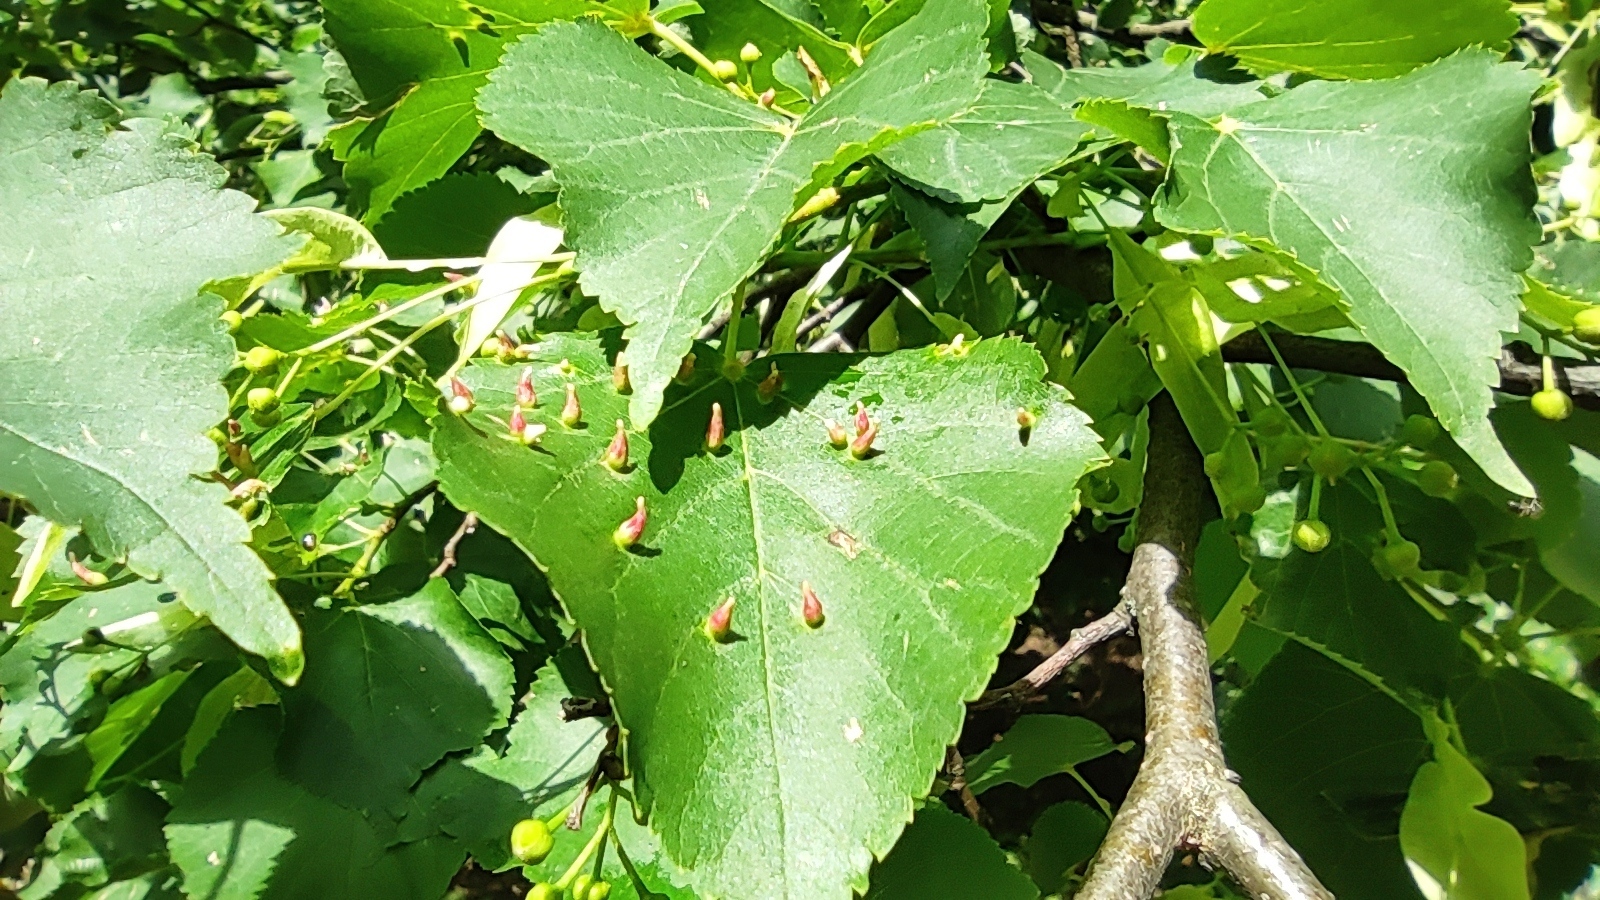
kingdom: Animalia
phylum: Arthropoda
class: Arachnida
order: Trombidiformes
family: Eriophyidae
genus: Eriophyes
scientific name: Eriophyes tiliae
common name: Red nail gall mite
